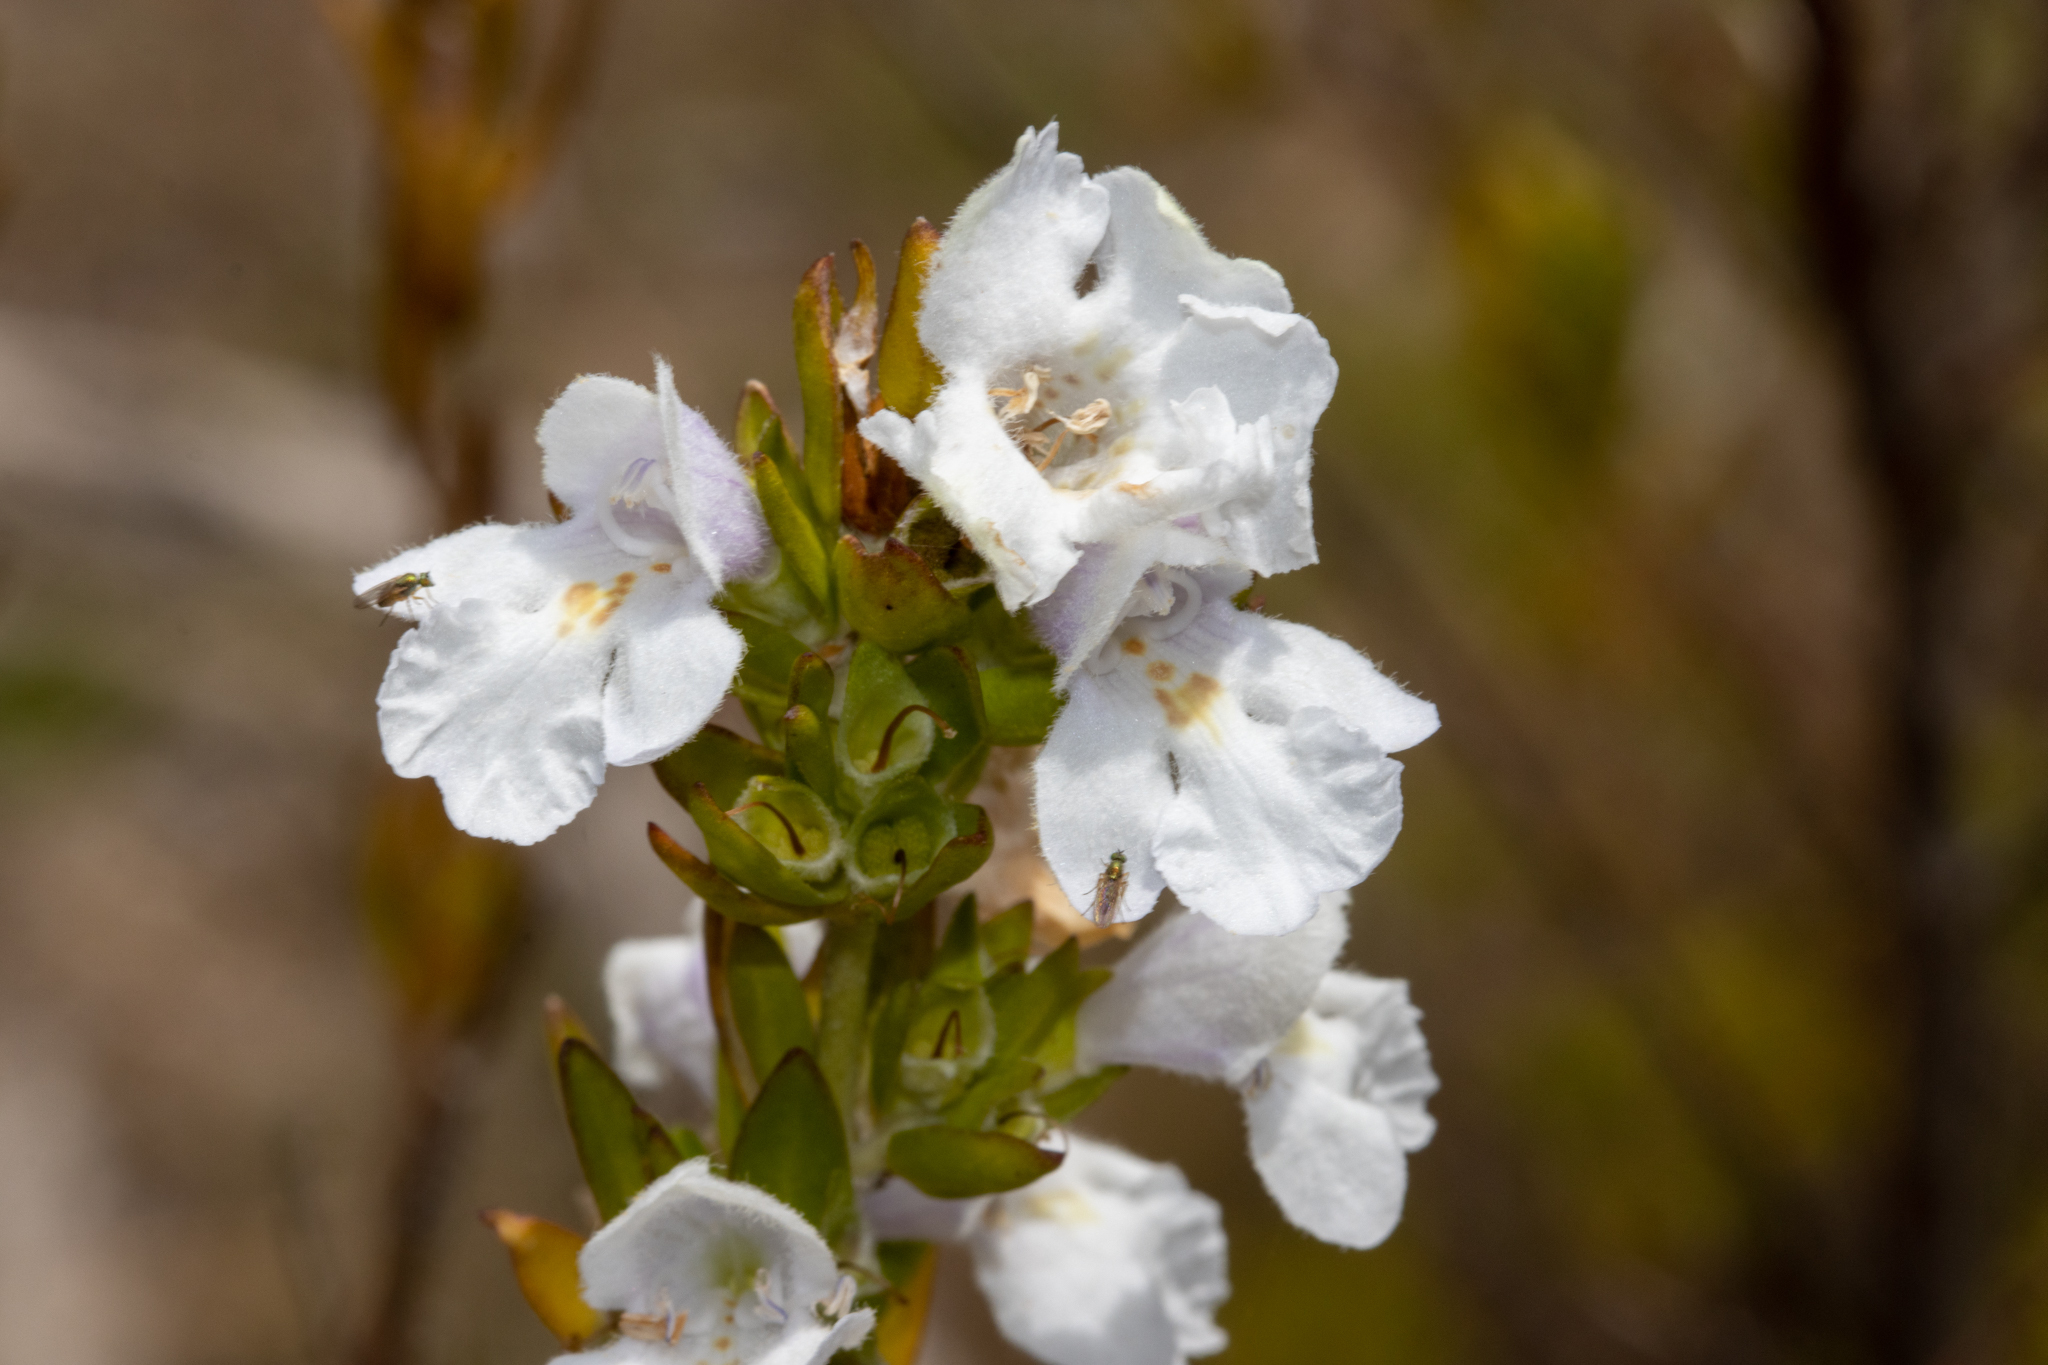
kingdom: Plantae
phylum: Tracheophyta
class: Magnoliopsida
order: Lamiales
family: Lamiaceae
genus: Prostanthera
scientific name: Prostanthera behriana
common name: Downy mintbush
